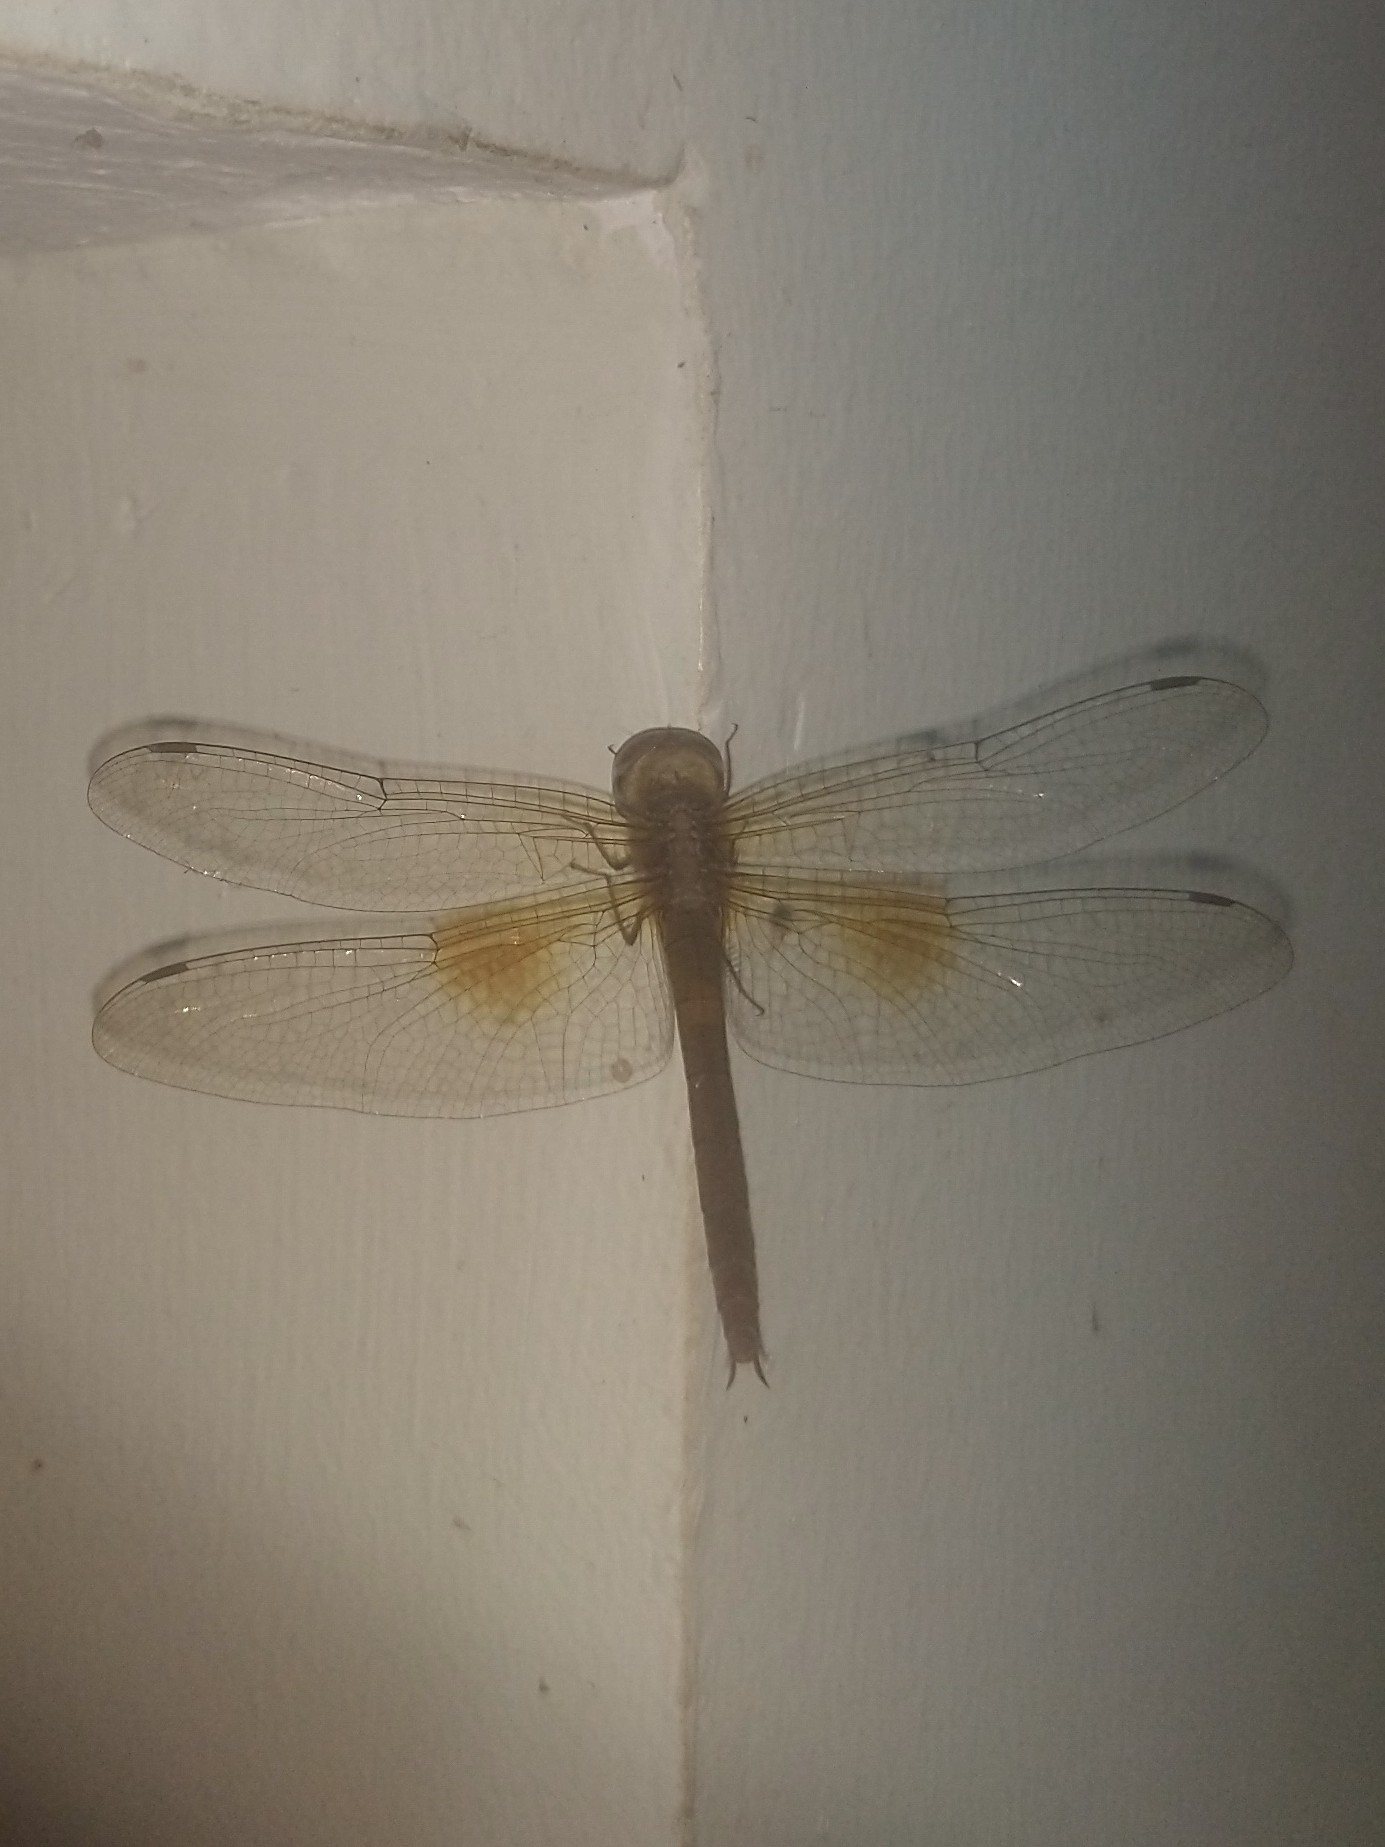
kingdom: Animalia
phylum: Arthropoda
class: Insecta
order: Odonata
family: Libellulidae
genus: Tholymis
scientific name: Tholymis tillarga
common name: Coral-tailed cloud wing
